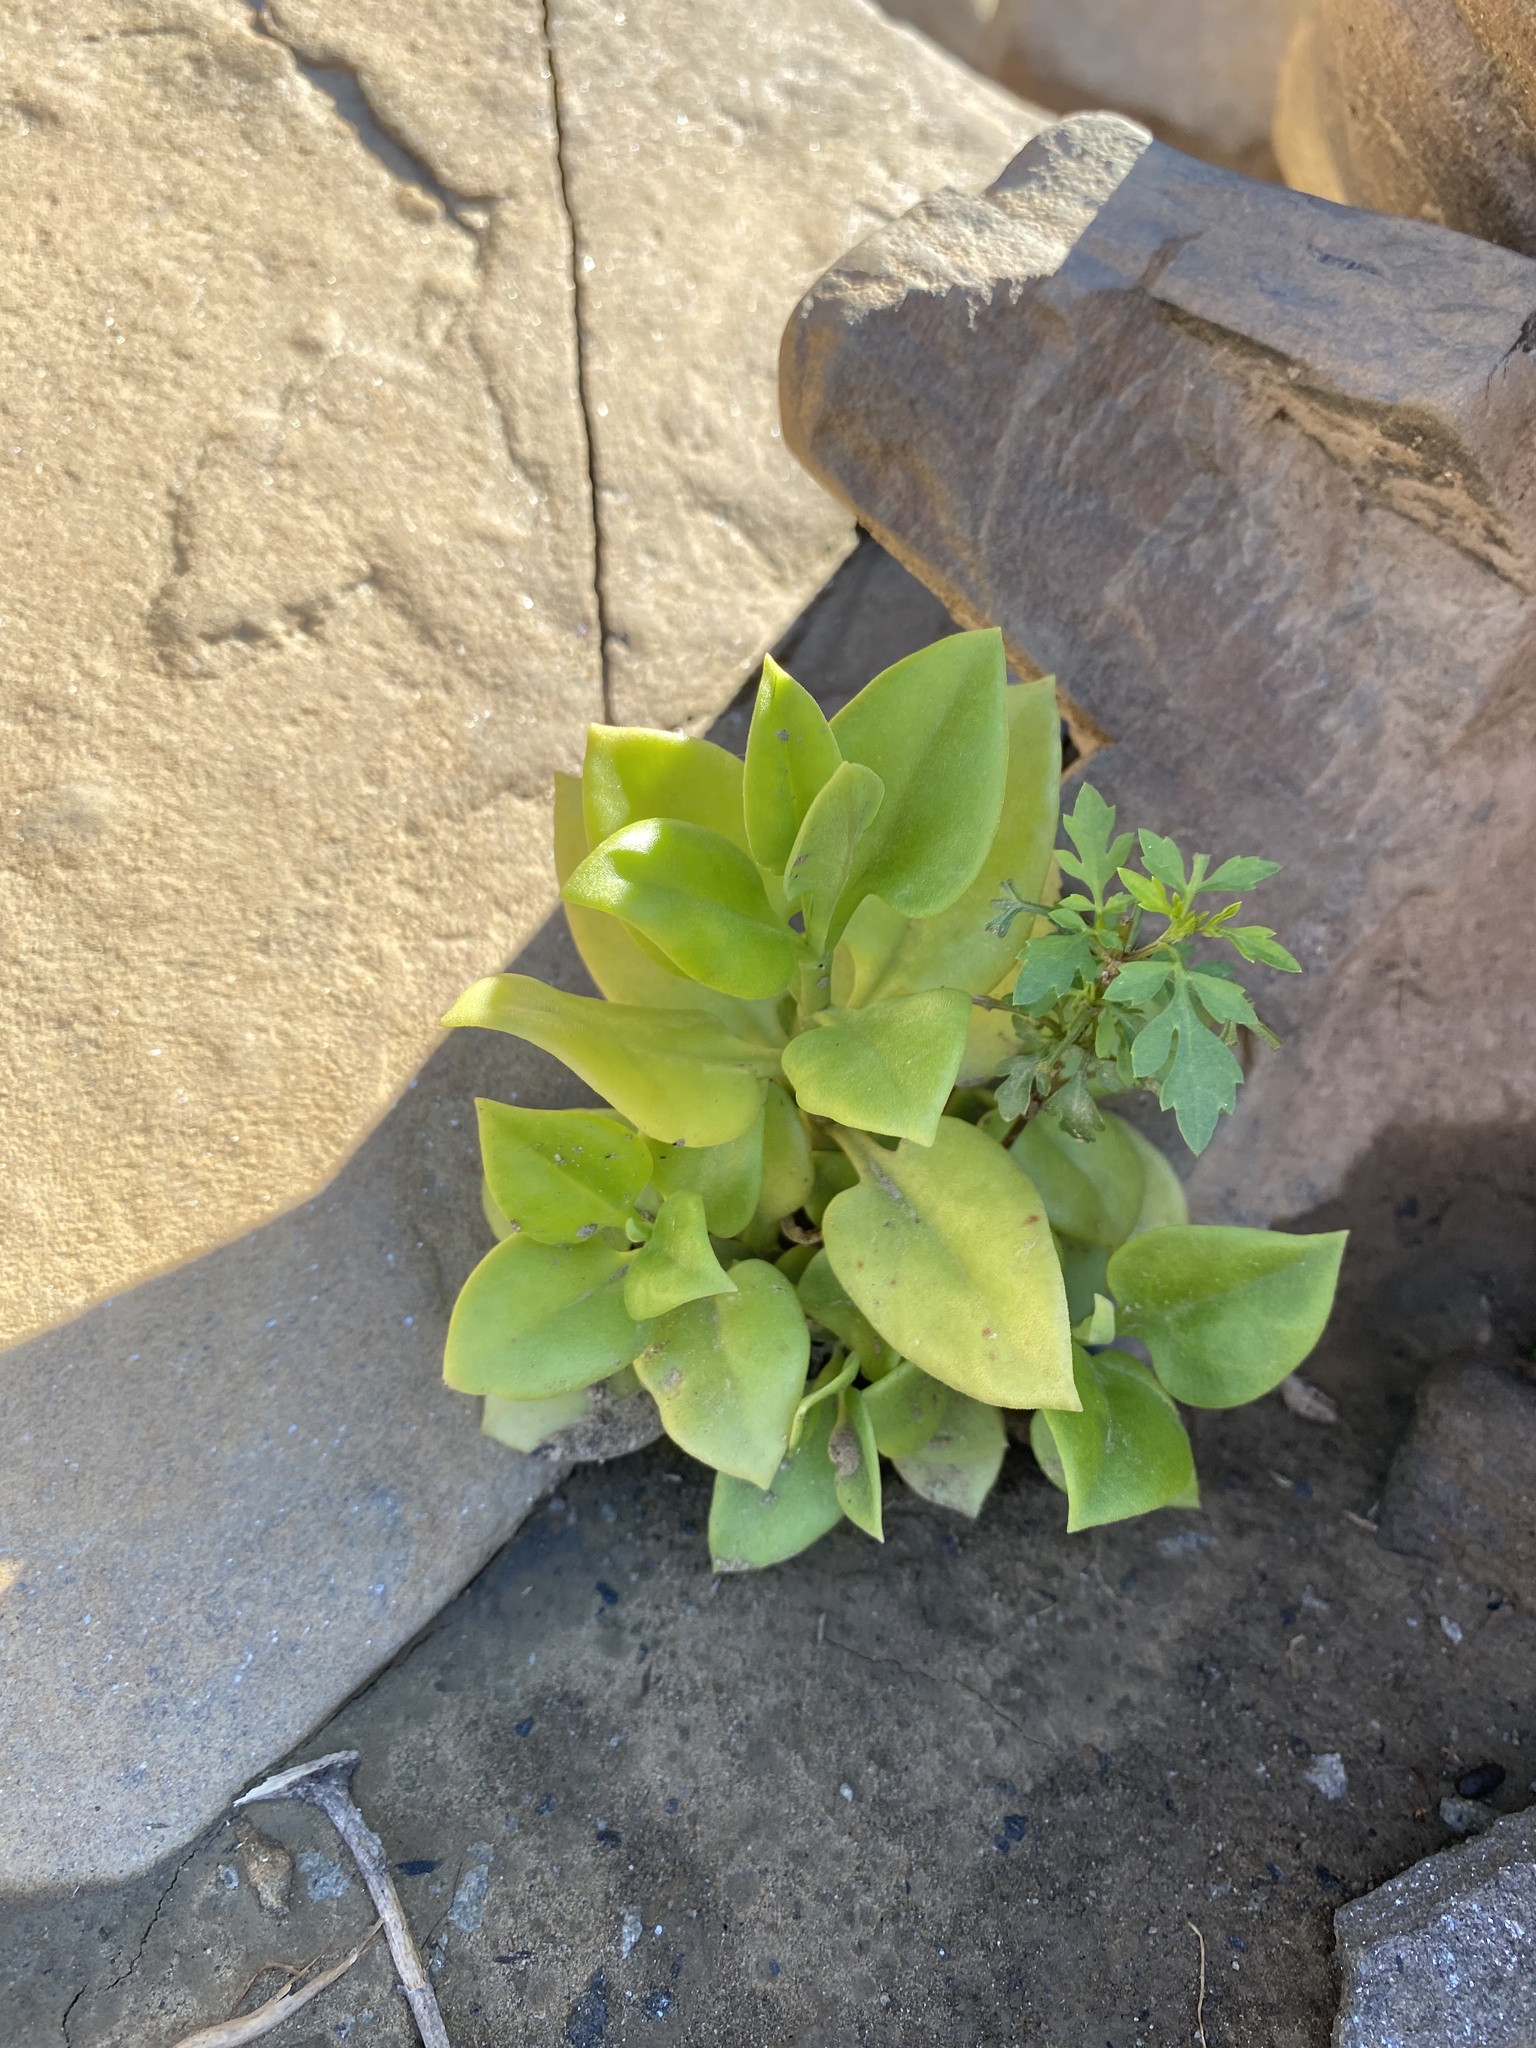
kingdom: Plantae
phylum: Tracheophyta
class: Magnoliopsida
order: Caryophyllales
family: Aizoaceae
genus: Mesembryanthemum
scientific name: Mesembryanthemum cordifolium
